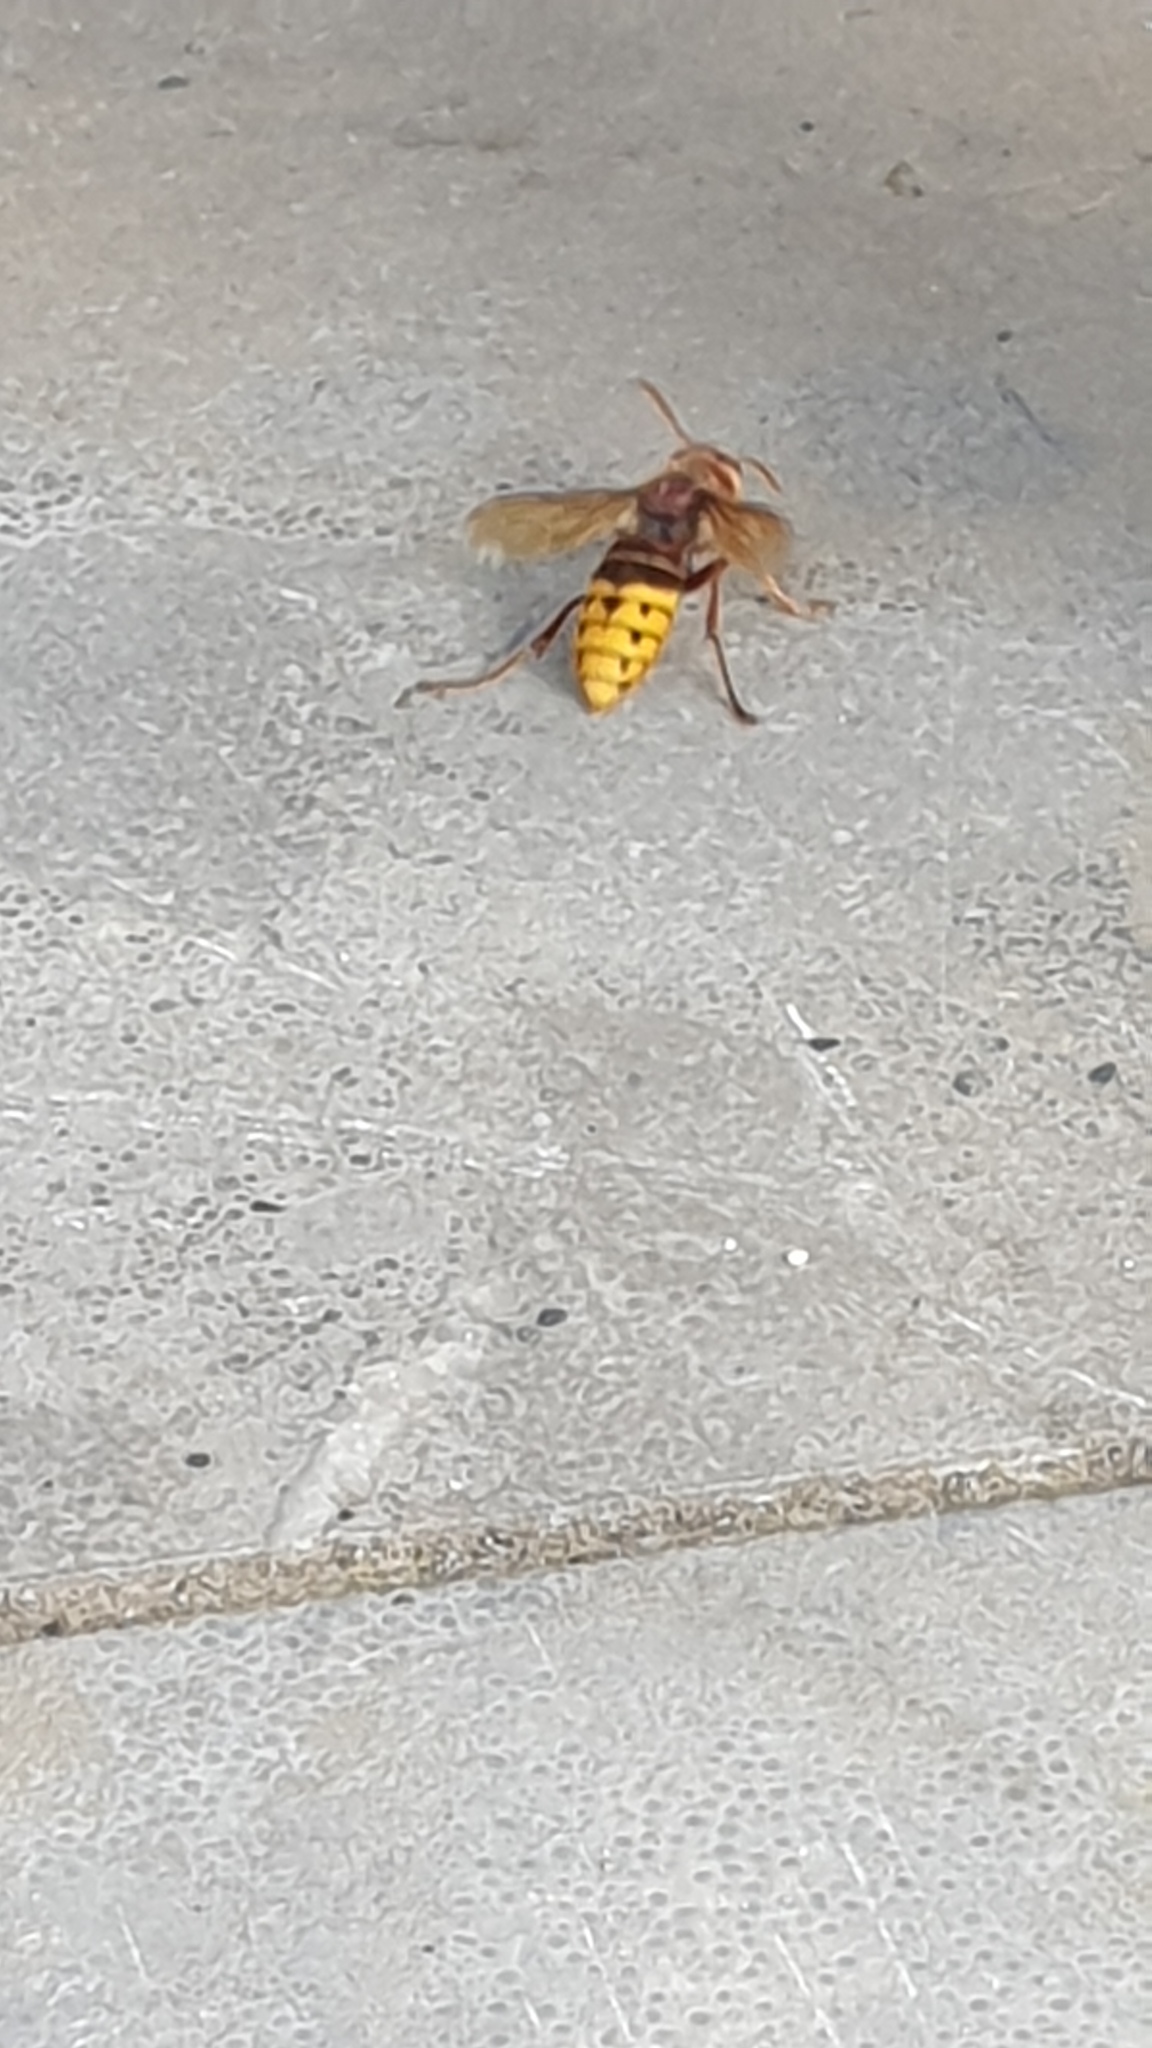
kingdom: Animalia
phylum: Arthropoda
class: Insecta
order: Hymenoptera
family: Vespidae
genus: Vespa
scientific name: Vespa crabro
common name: Hornet
